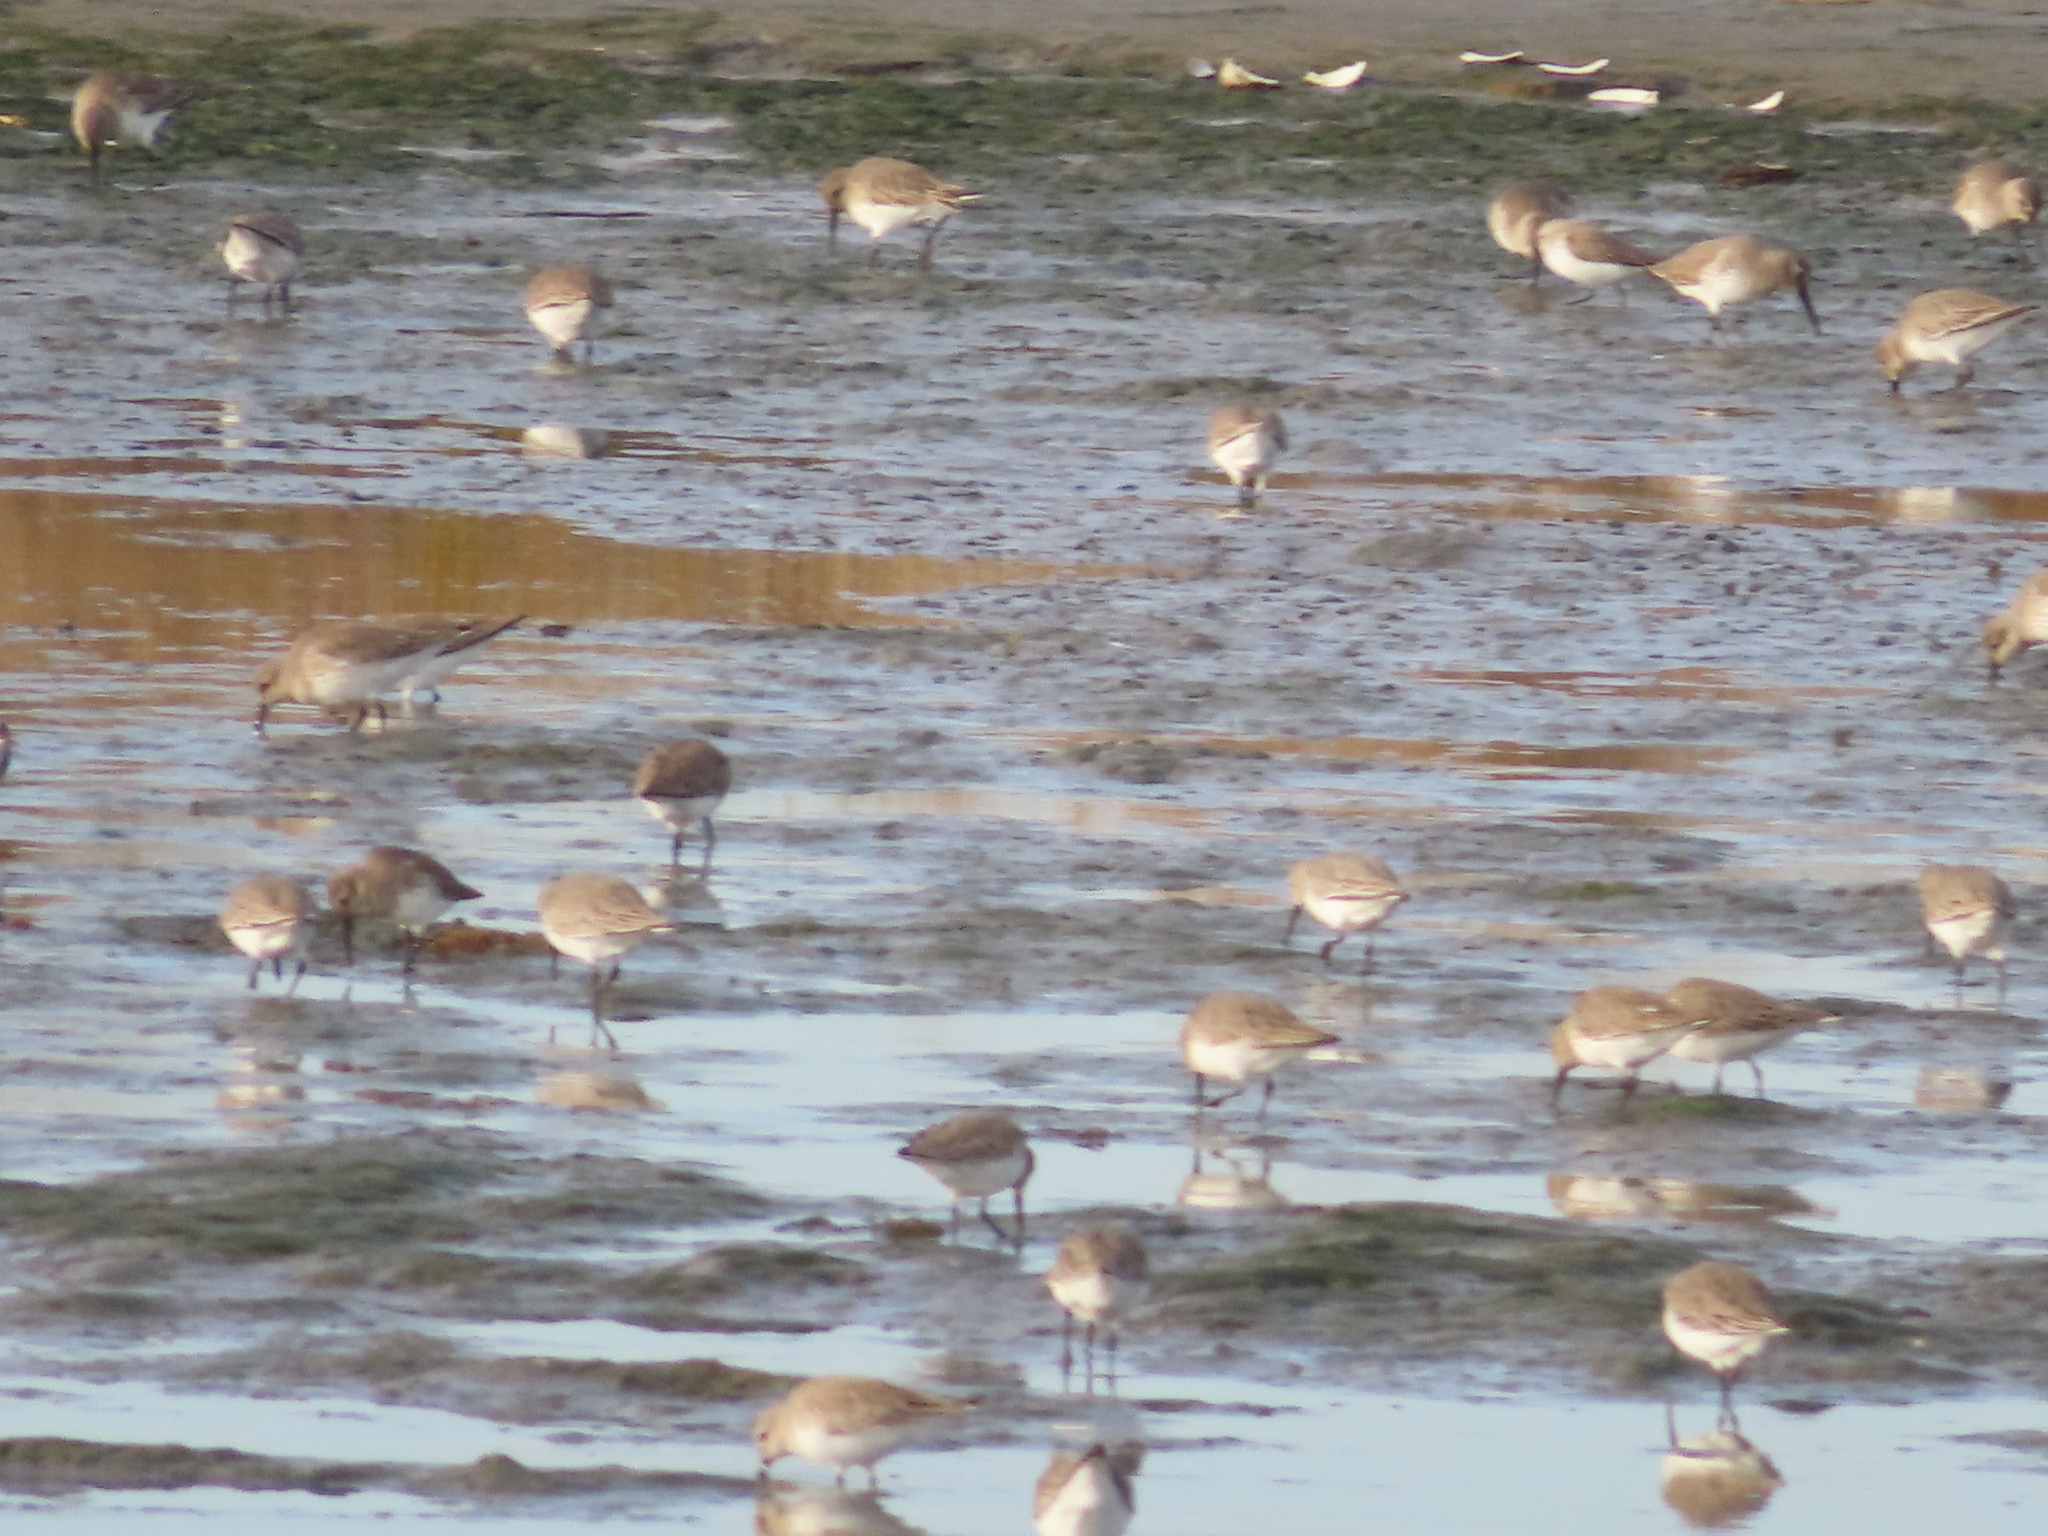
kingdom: Animalia
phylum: Chordata
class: Aves
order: Charadriiformes
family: Scolopacidae
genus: Calidris
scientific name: Calidris alpina
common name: Dunlin
